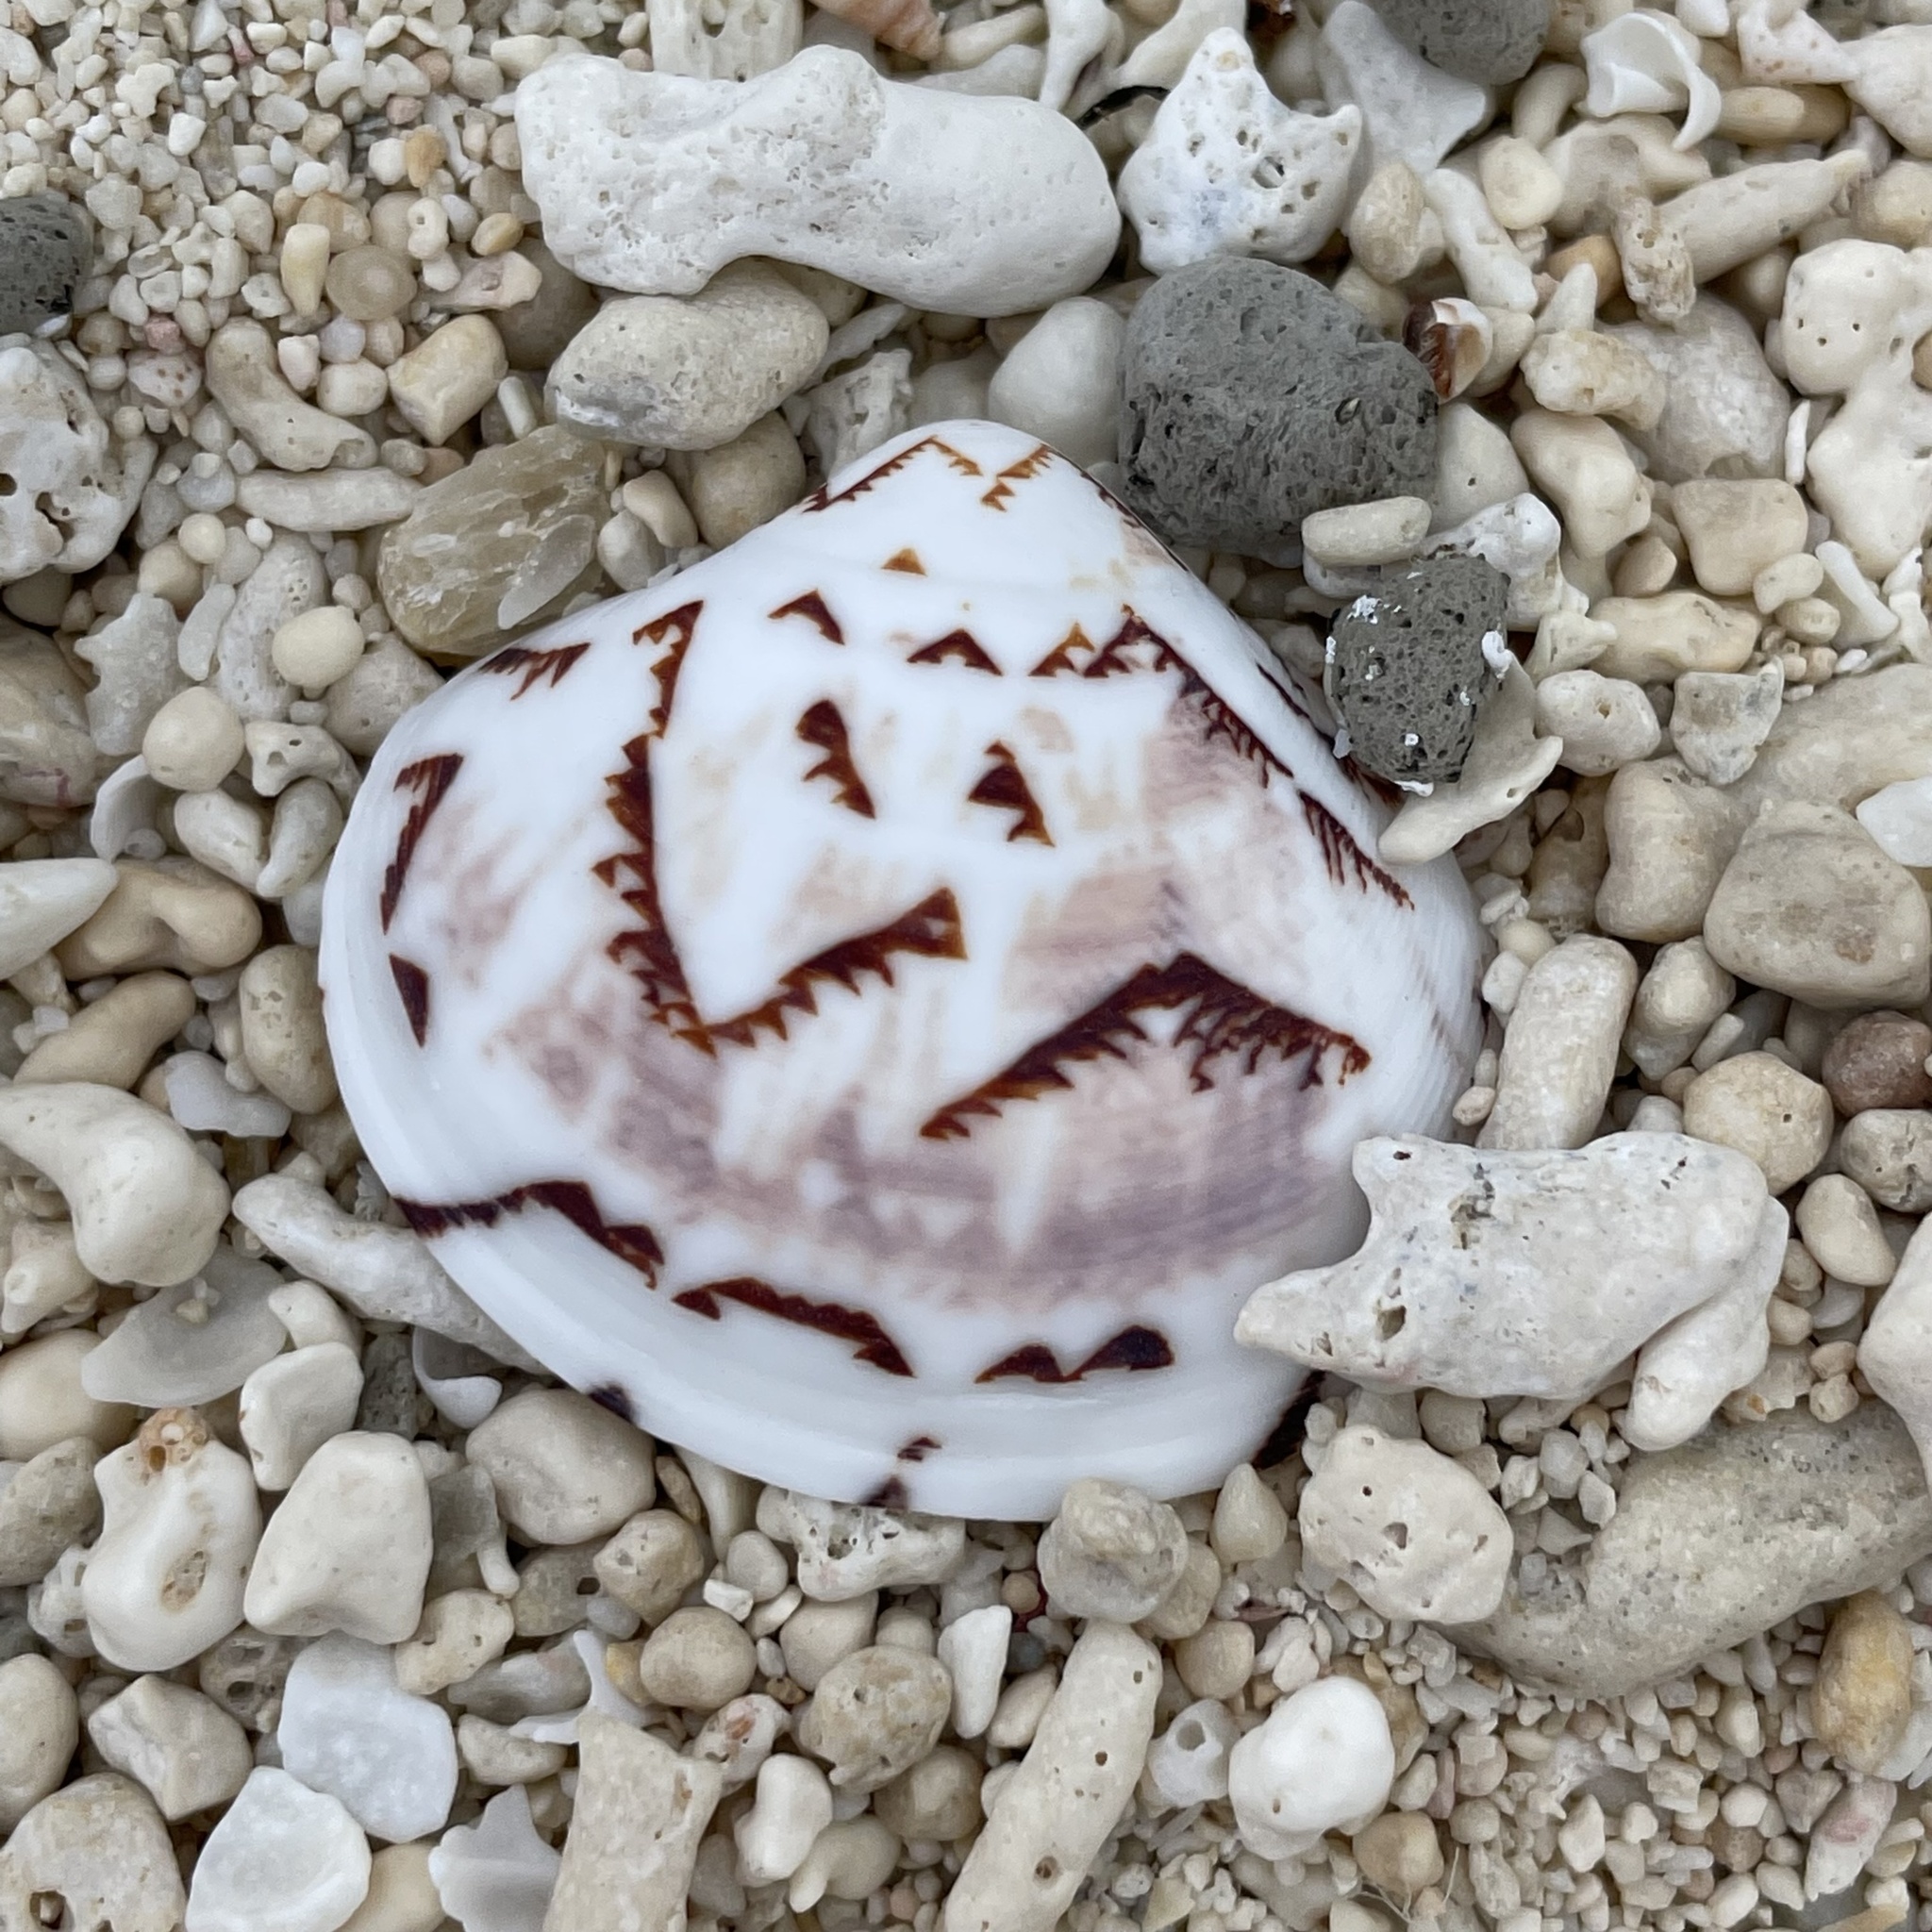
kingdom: Animalia
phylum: Mollusca
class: Bivalvia
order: Venerida
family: Veneridae
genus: Lioconcha
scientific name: Lioconcha castrensis
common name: Camp pitar-venus
